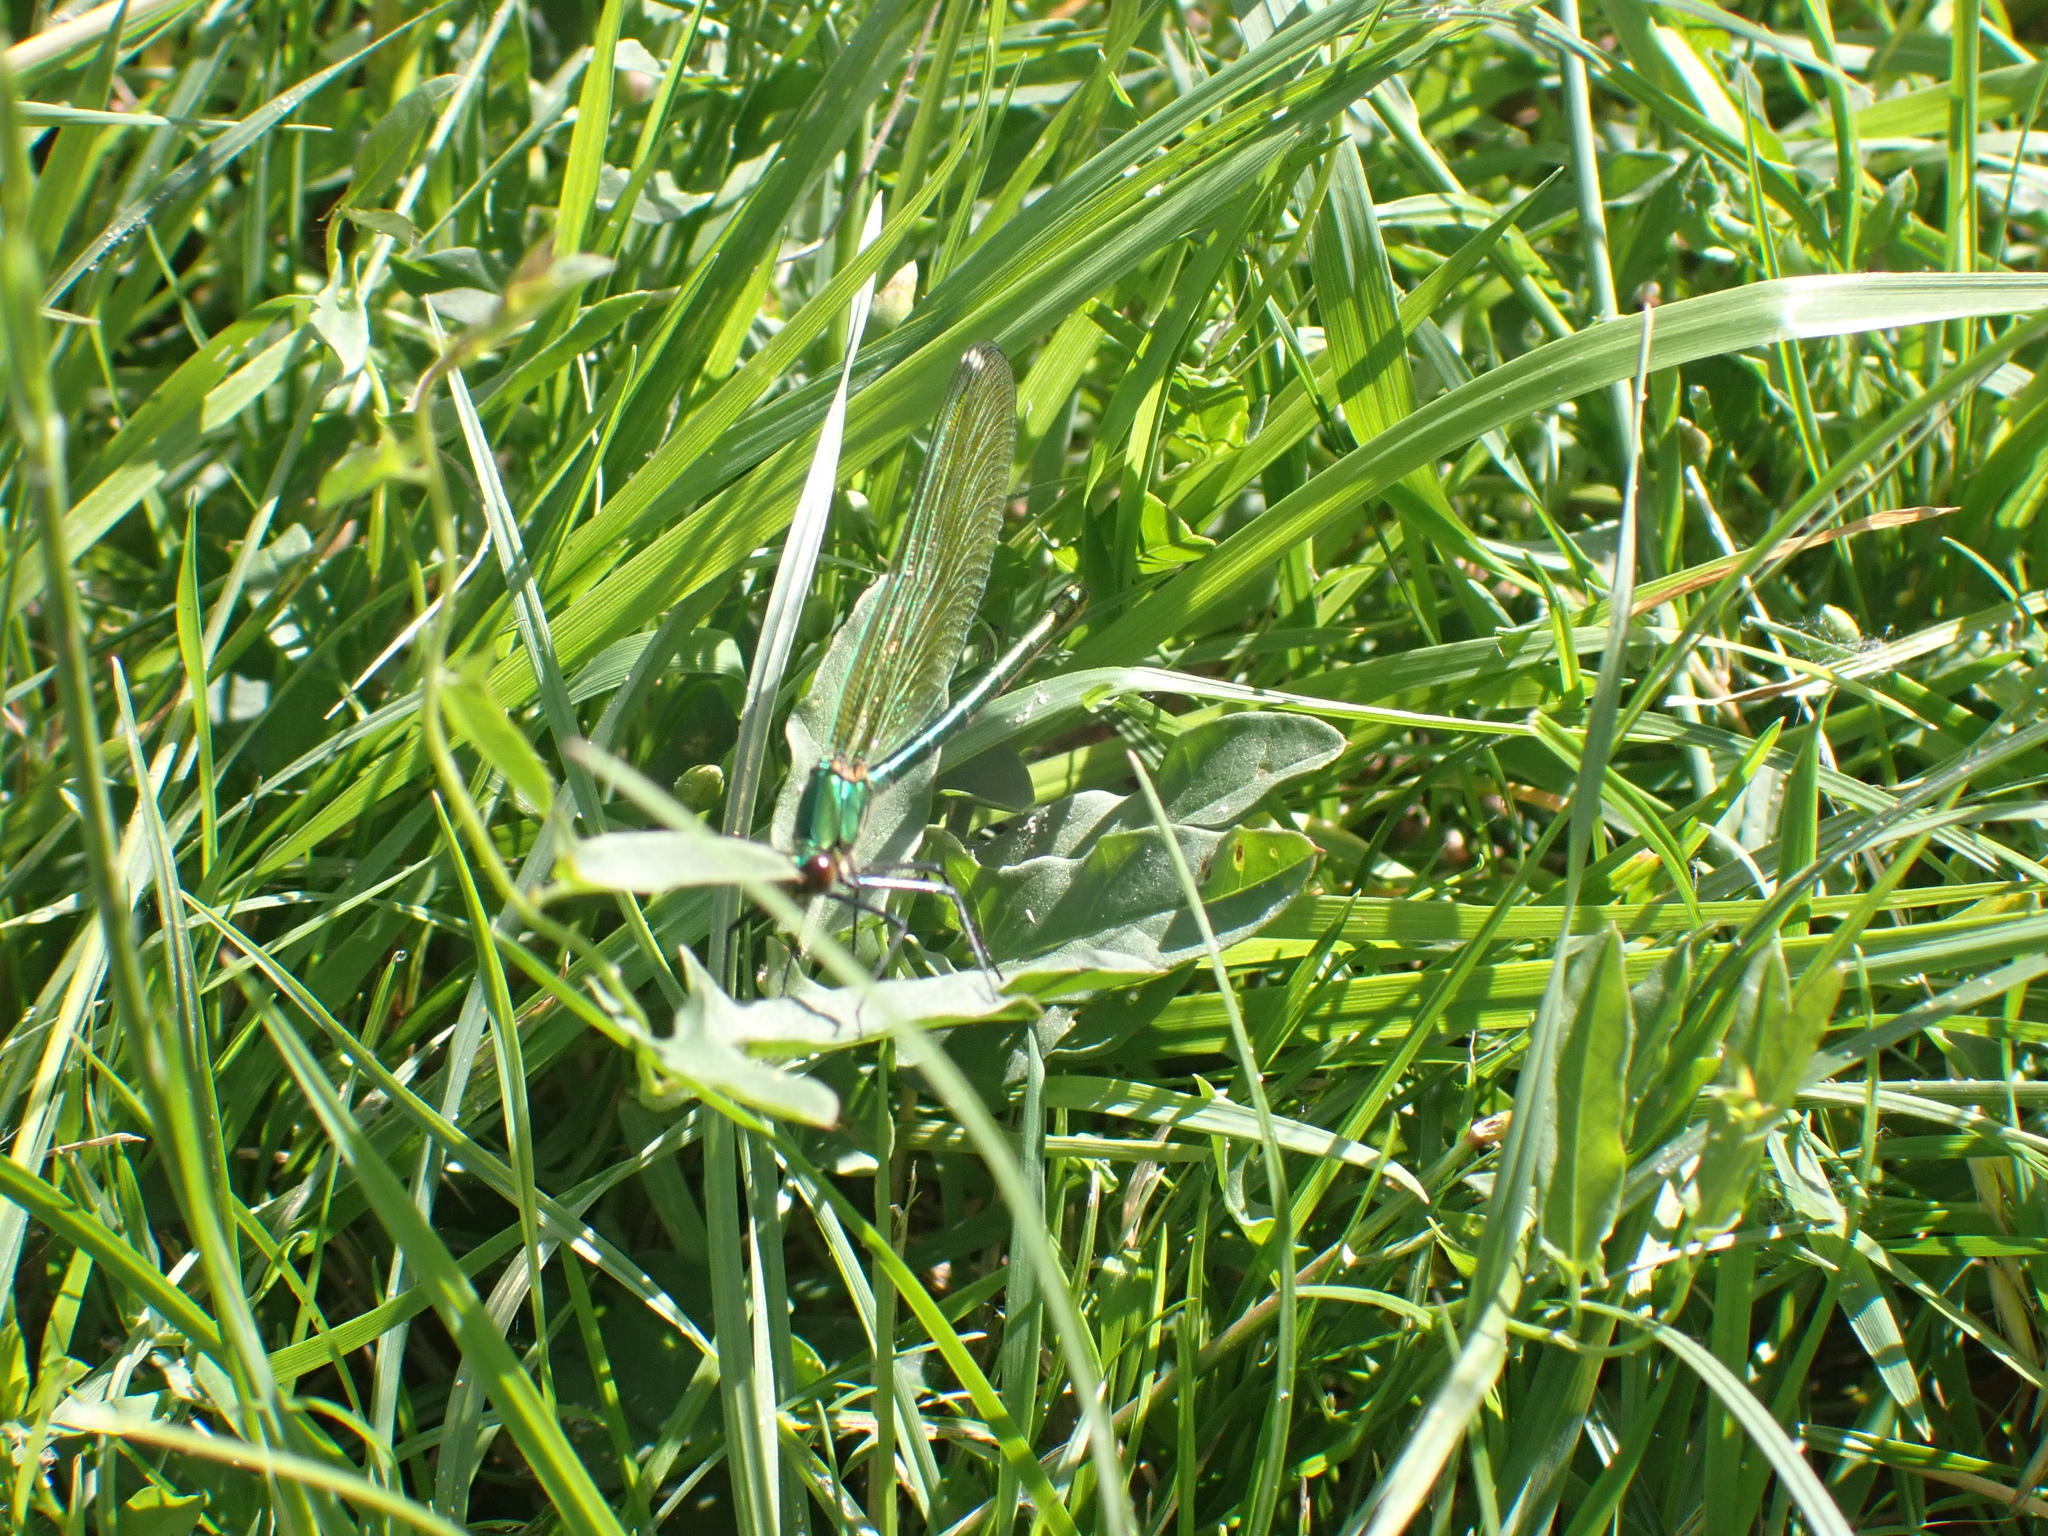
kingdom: Animalia
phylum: Arthropoda
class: Insecta
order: Odonata
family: Calopterygidae
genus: Calopteryx
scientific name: Calopteryx splendens
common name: Banded demoiselle
